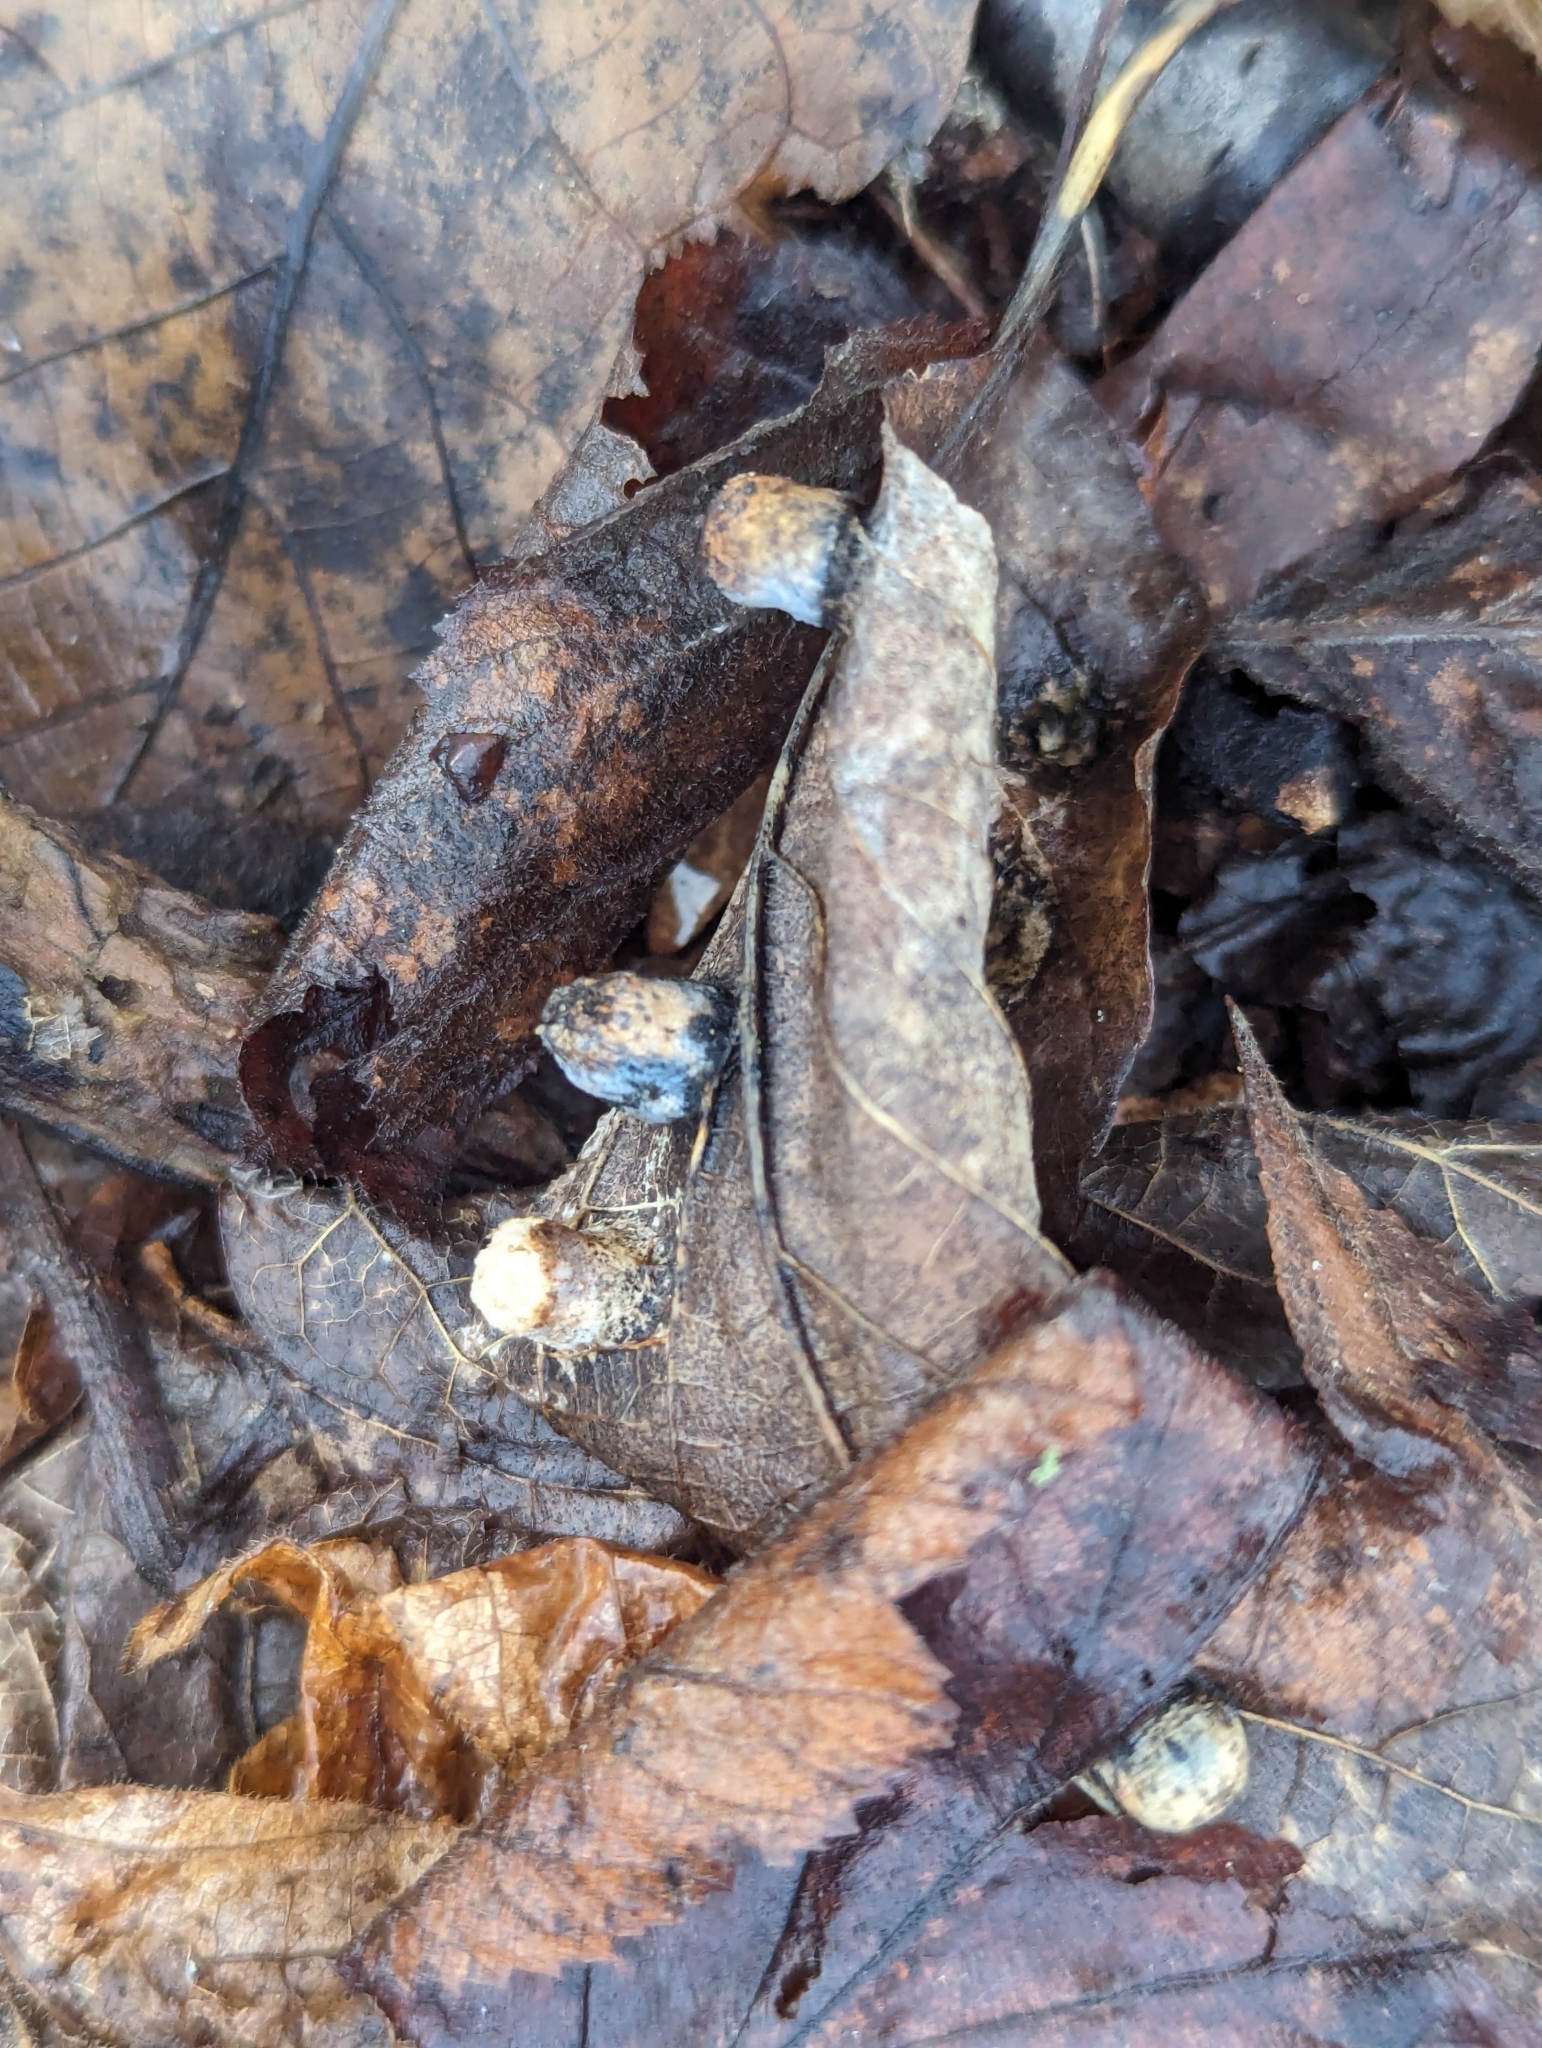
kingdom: Animalia
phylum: Arthropoda
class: Insecta
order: Hemiptera
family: Aphalaridae
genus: Pachypsylla
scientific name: Pachypsylla celtidismamma
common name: Hackberry nipplegall psyllid
